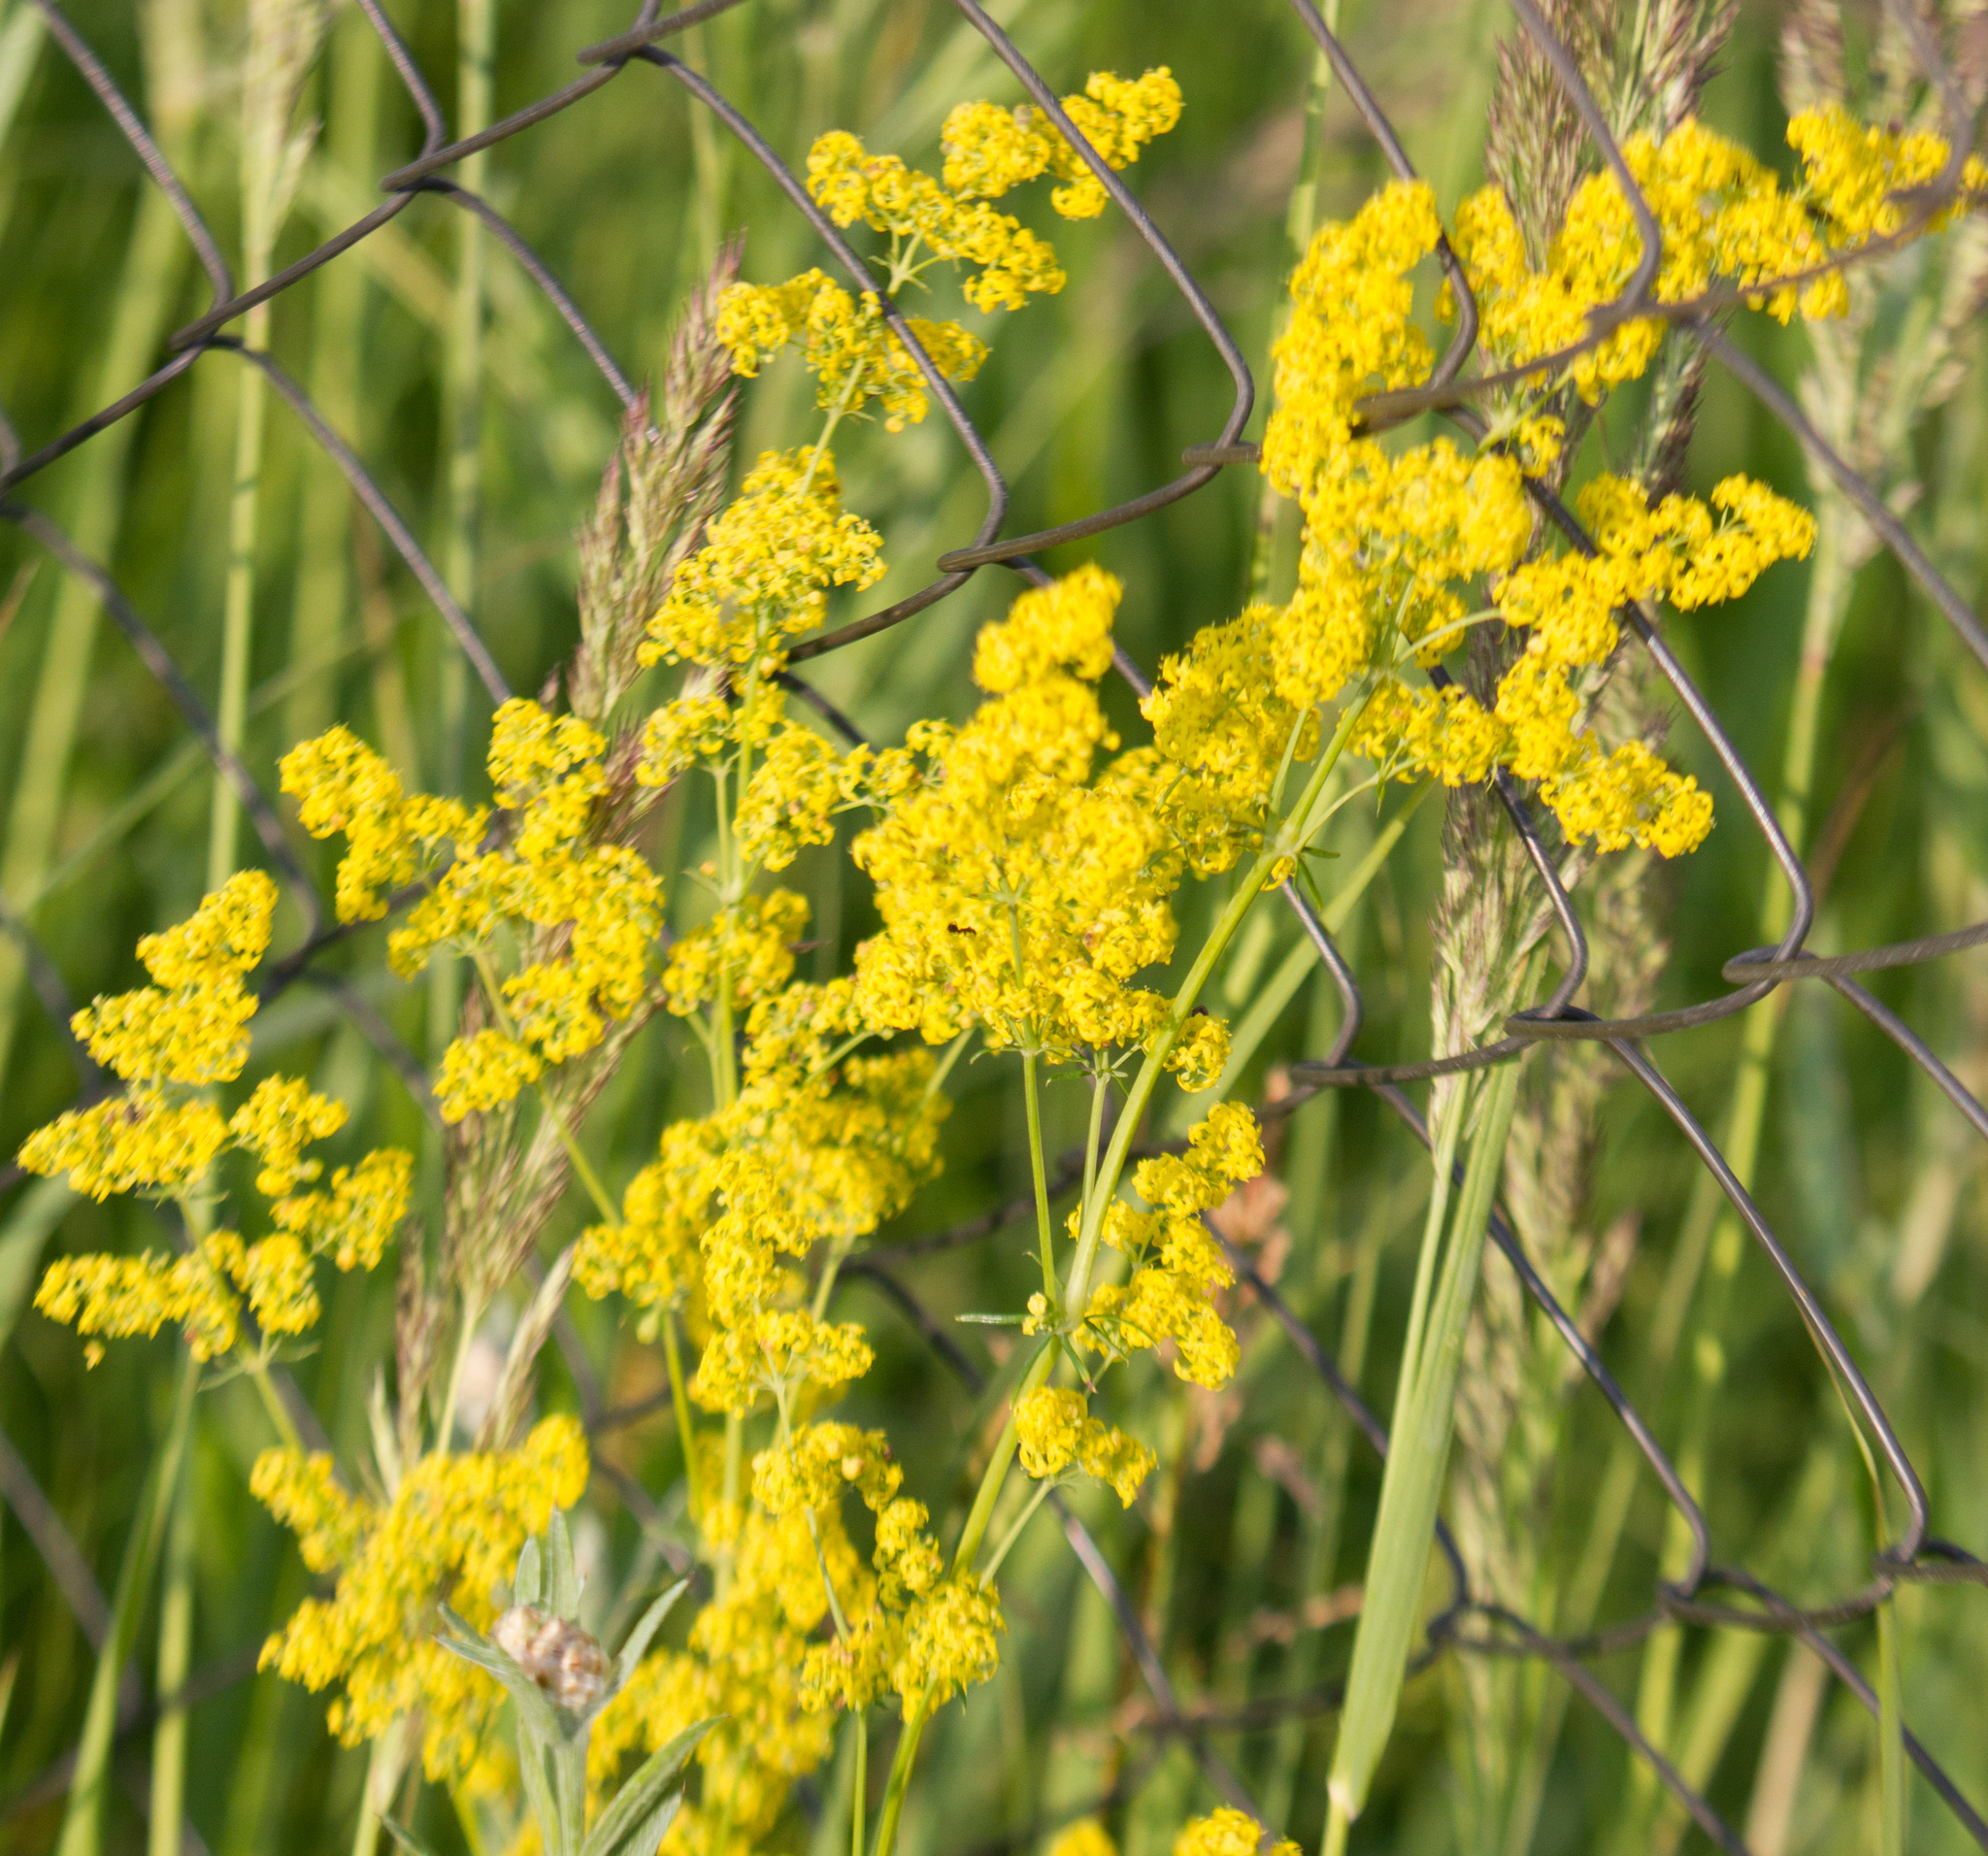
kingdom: Plantae
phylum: Tracheophyta
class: Magnoliopsida
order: Gentianales
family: Rubiaceae
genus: Galium
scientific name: Galium verum
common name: Lady's bedstraw
